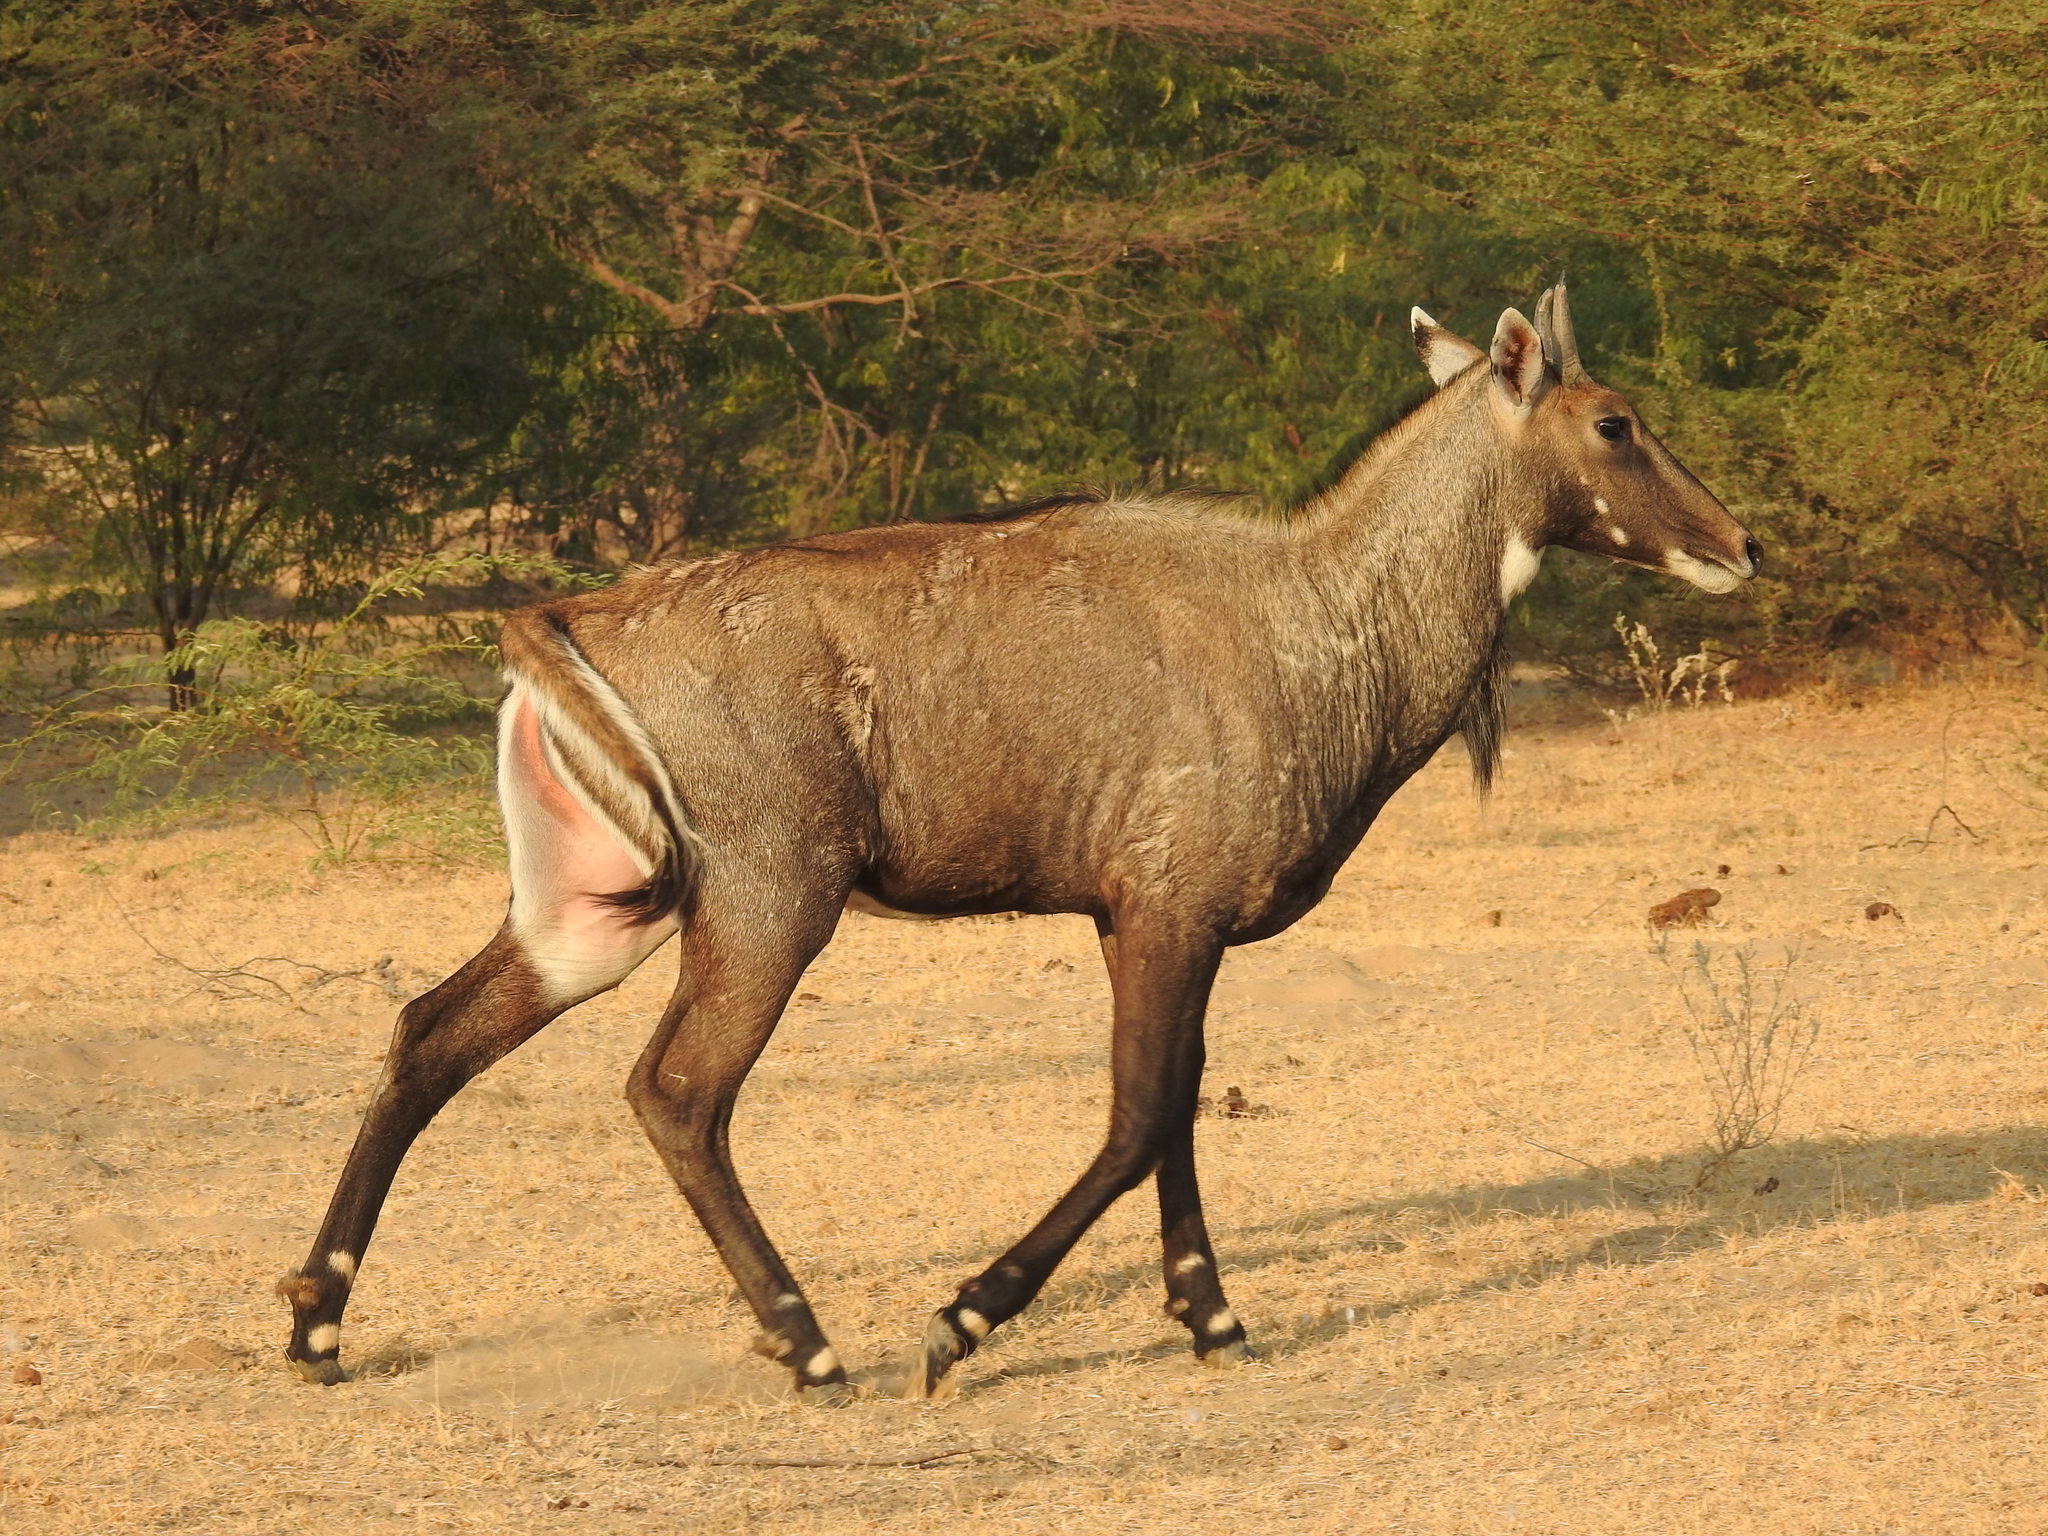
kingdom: Animalia
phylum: Chordata
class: Mammalia
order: Artiodactyla
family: Bovidae
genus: Boselaphus
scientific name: Boselaphus tragocamelus
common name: Nilgai
